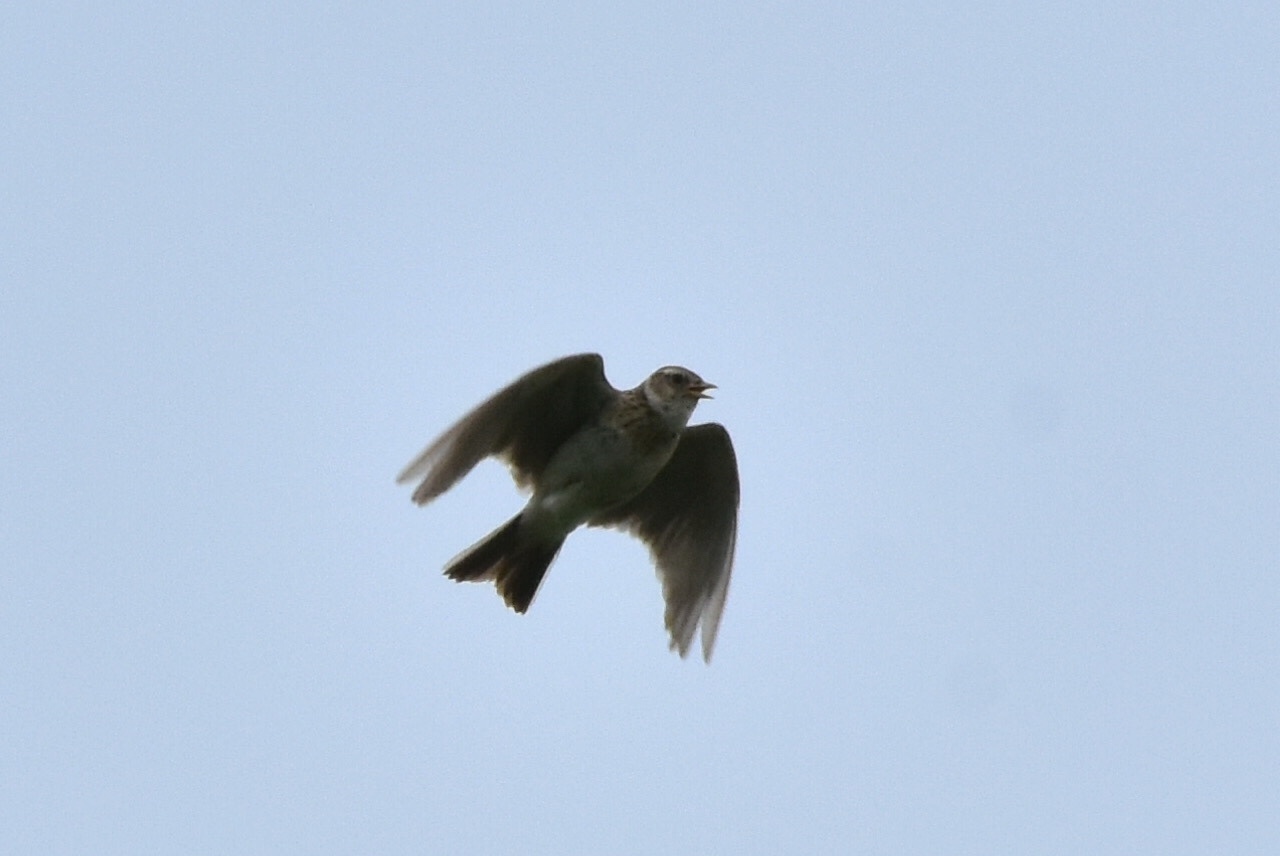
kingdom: Animalia
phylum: Chordata
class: Aves
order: Passeriformes
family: Alaudidae
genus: Alauda
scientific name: Alauda arvensis
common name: Eurasian skylark
